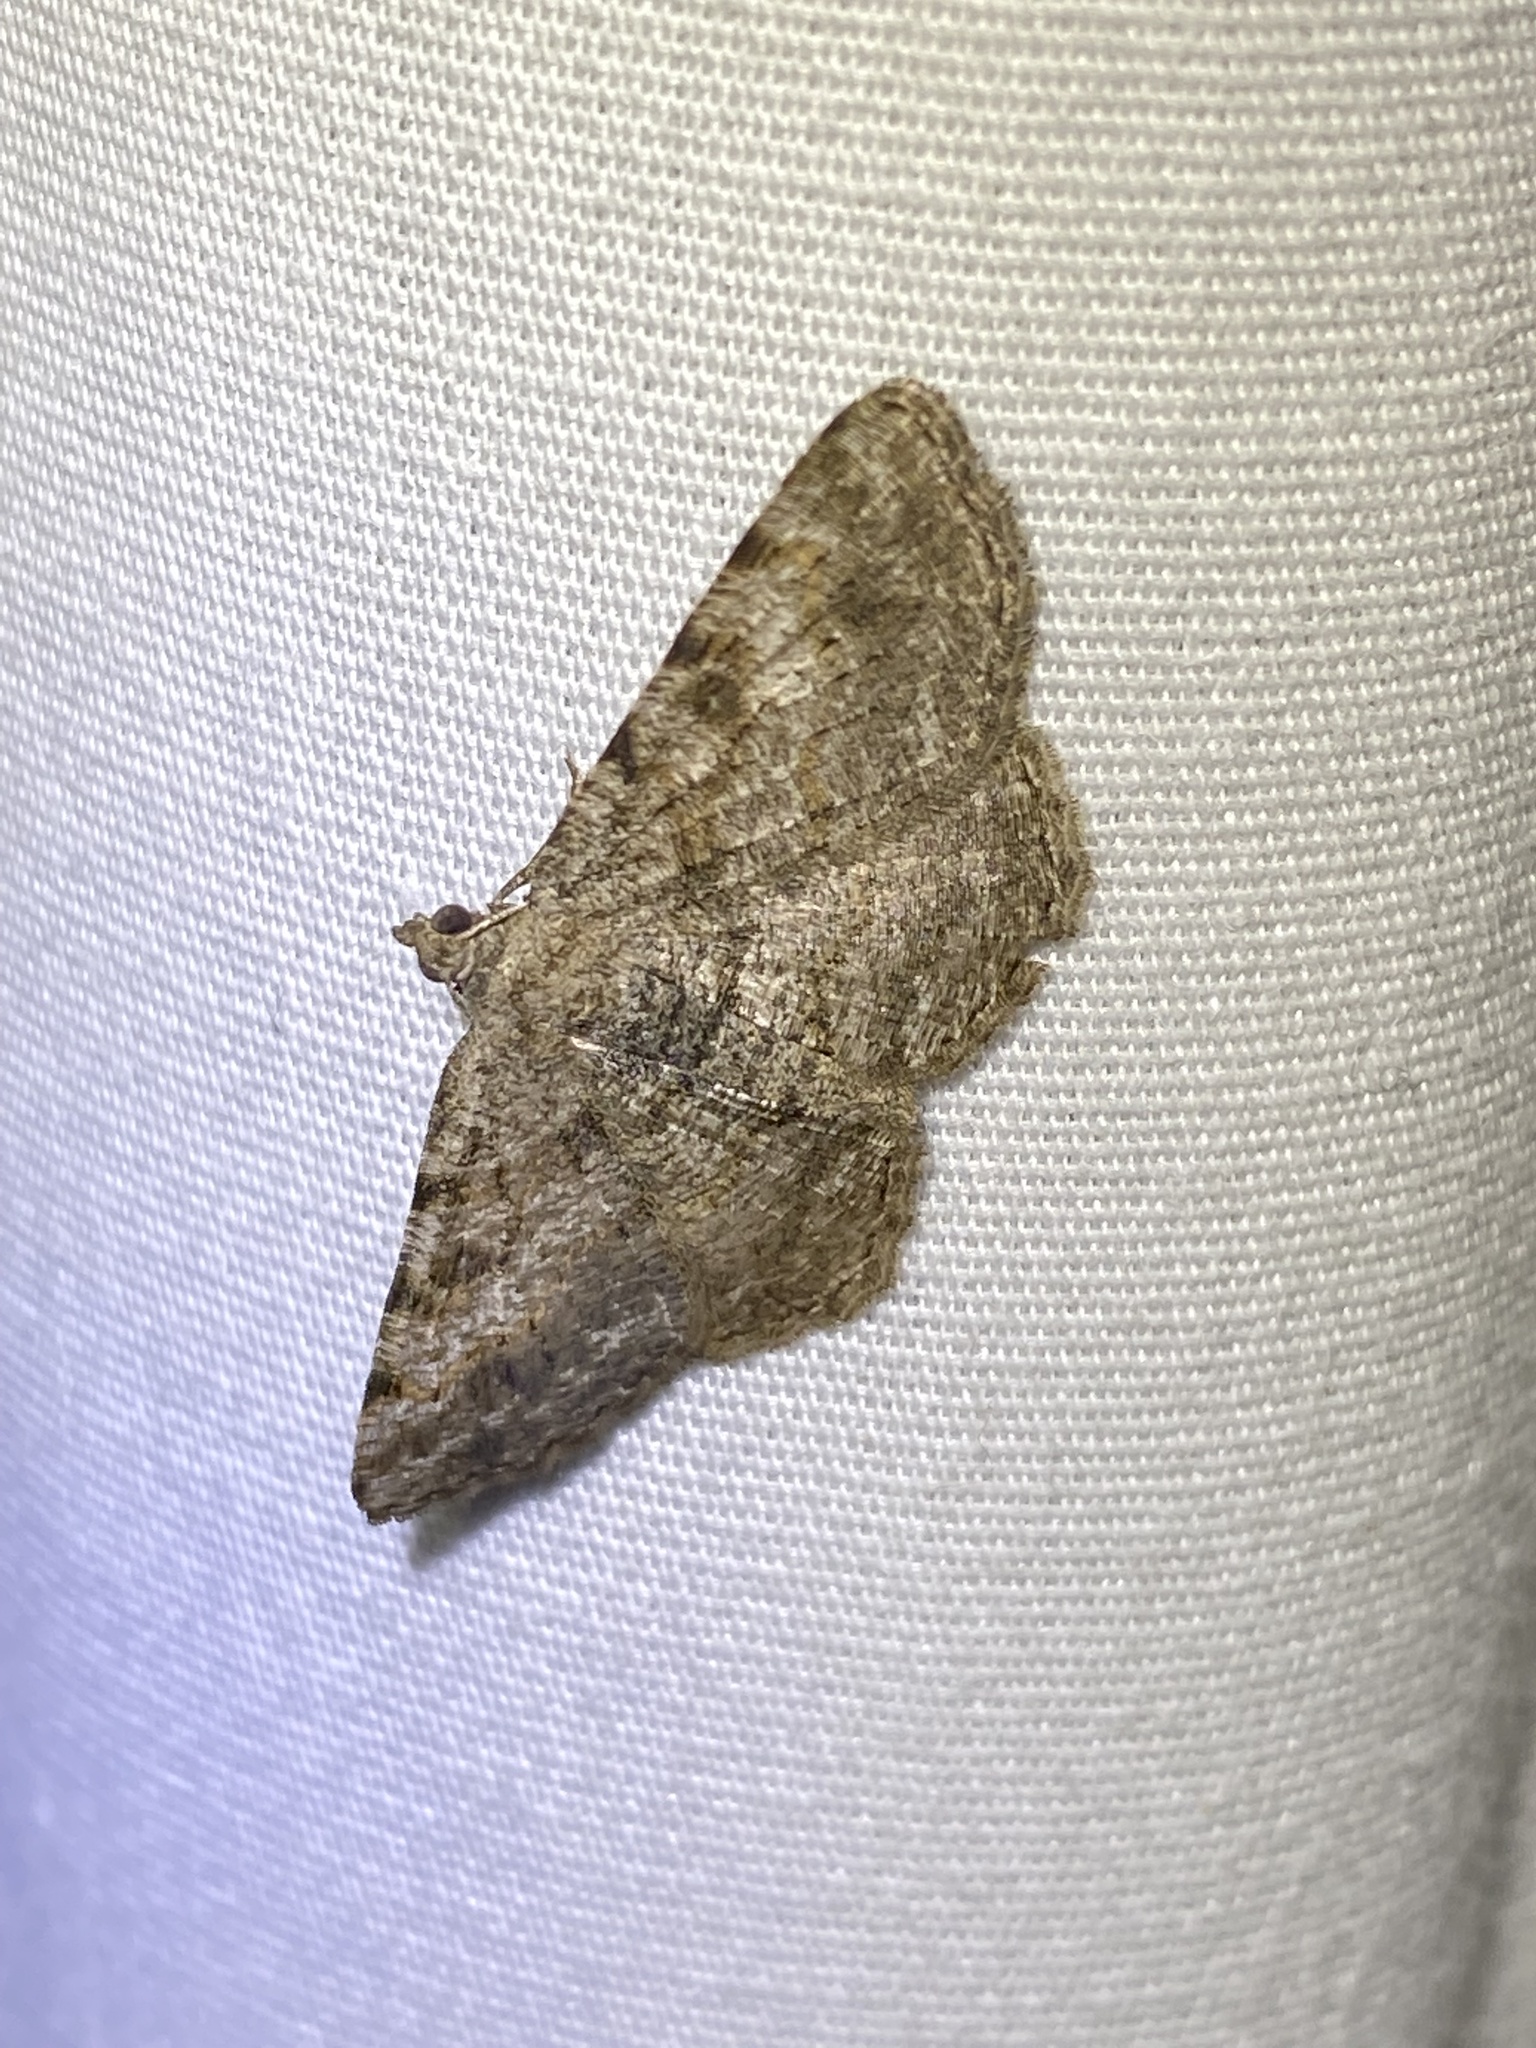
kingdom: Animalia
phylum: Arthropoda
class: Insecta
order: Lepidoptera
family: Geometridae
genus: Digrammia
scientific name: Digrammia gnophosaria
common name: Hollow-spotted angle
